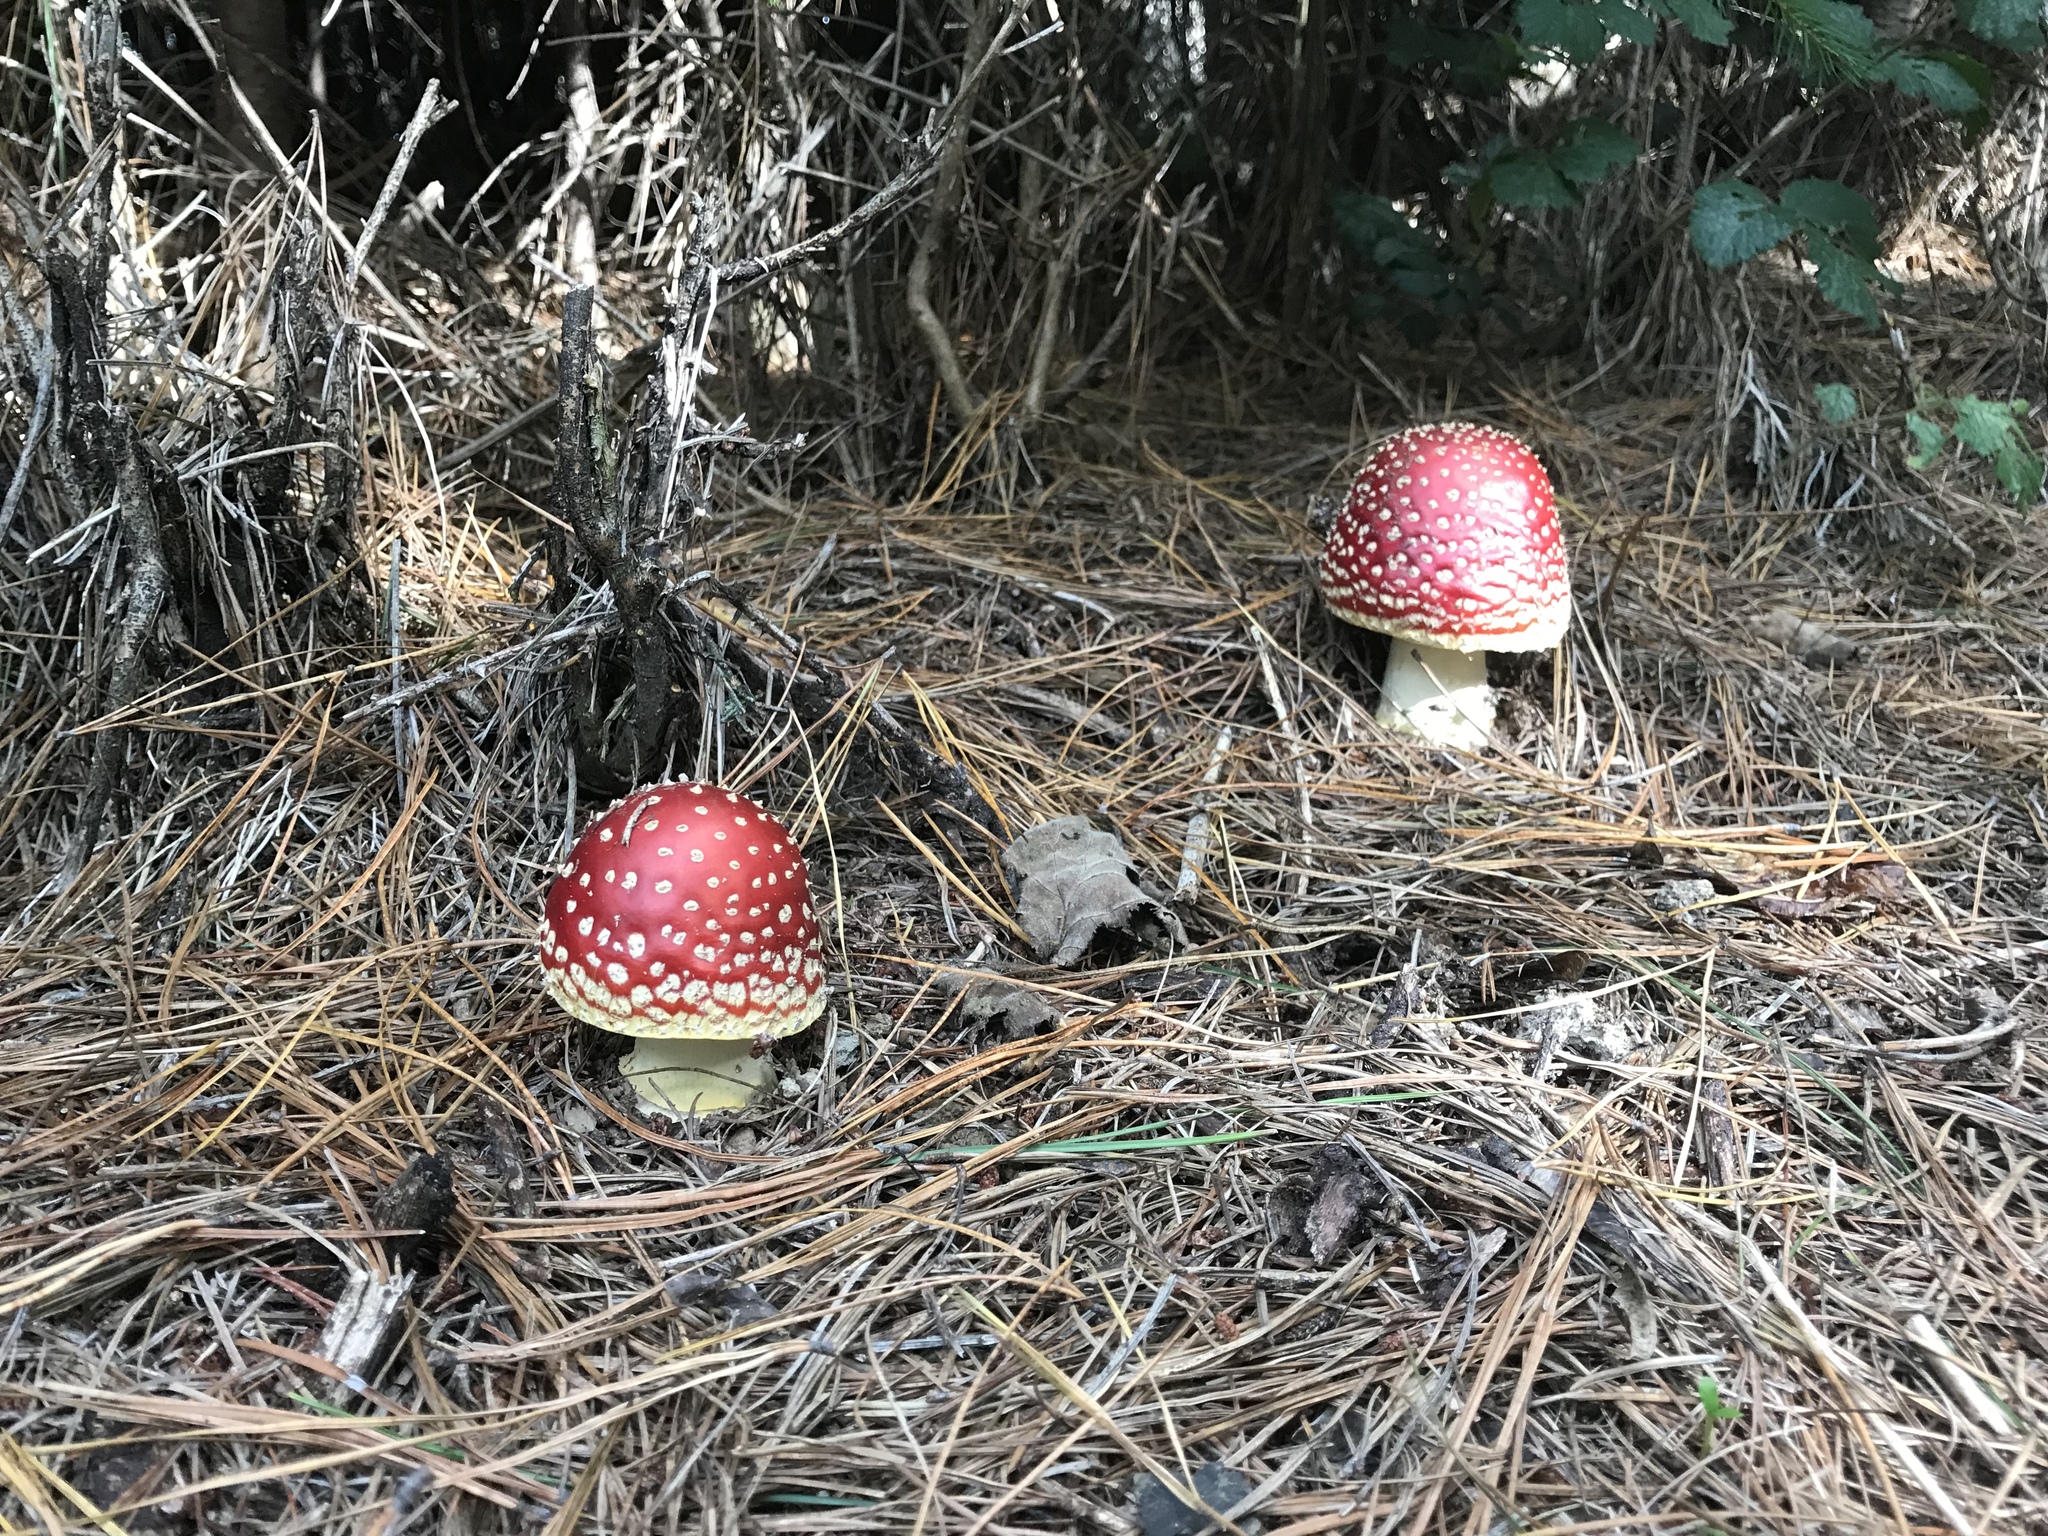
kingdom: Fungi
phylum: Basidiomycota
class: Agaricomycetes
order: Agaricales
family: Amanitaceae
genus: Amanita
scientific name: Amanita muscaria
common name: Fly agaric
